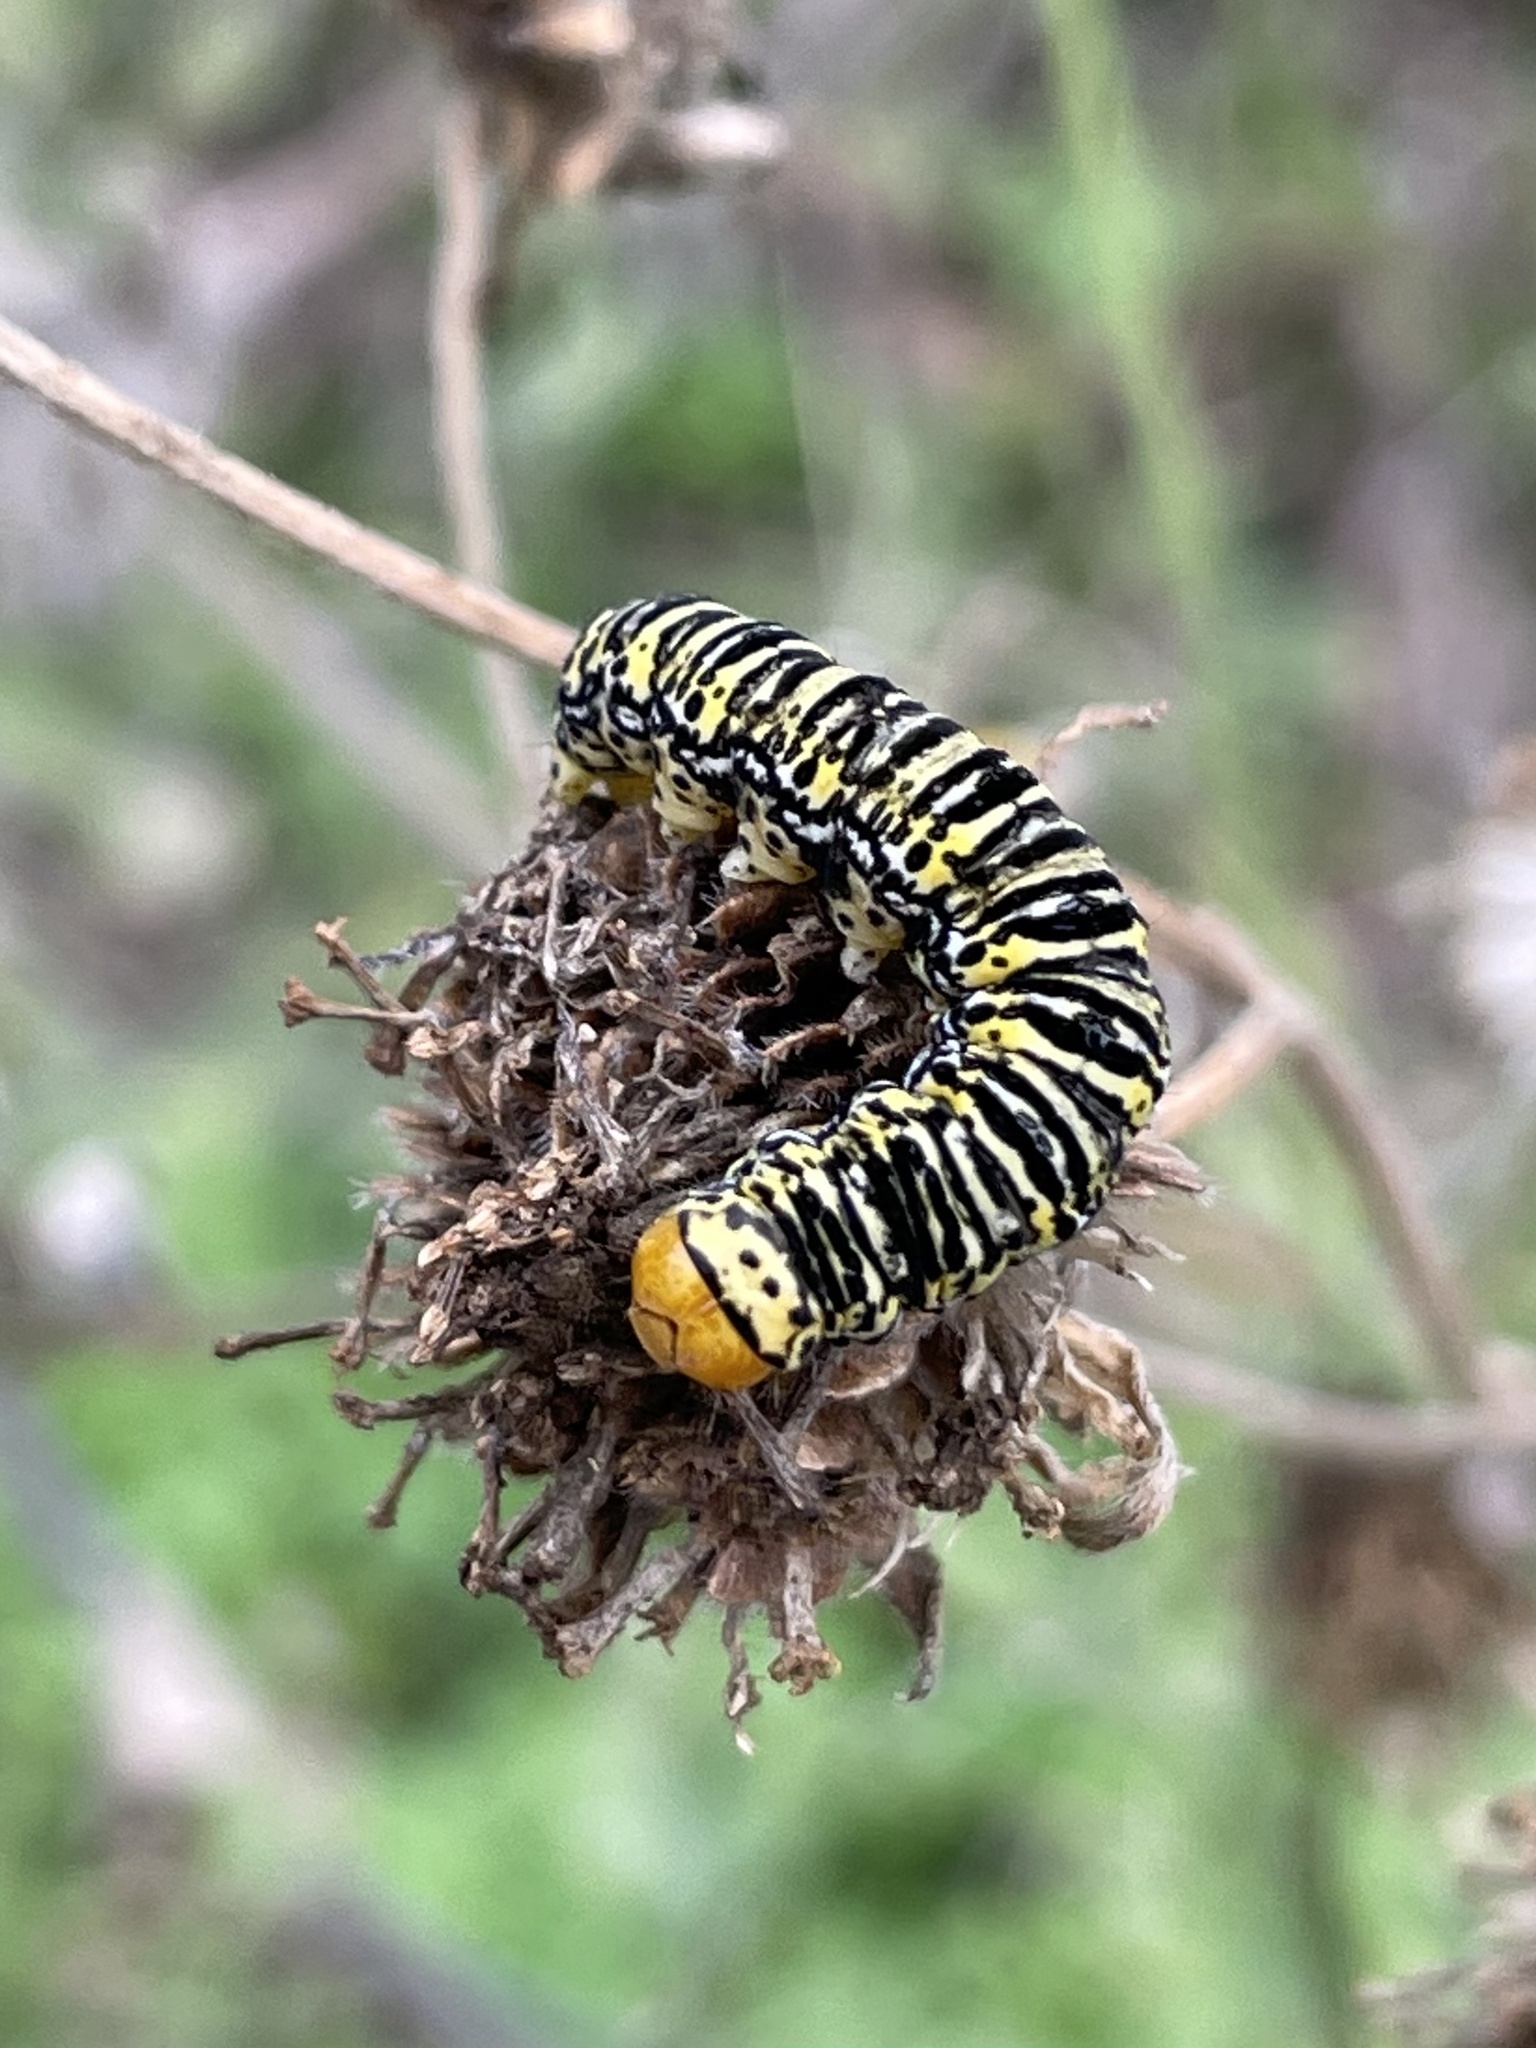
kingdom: Animalia
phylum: Arthropoda
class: Insecta
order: Lepidoptera
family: Noctuidae
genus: Basilodes
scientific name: Basilodes chrysopis
